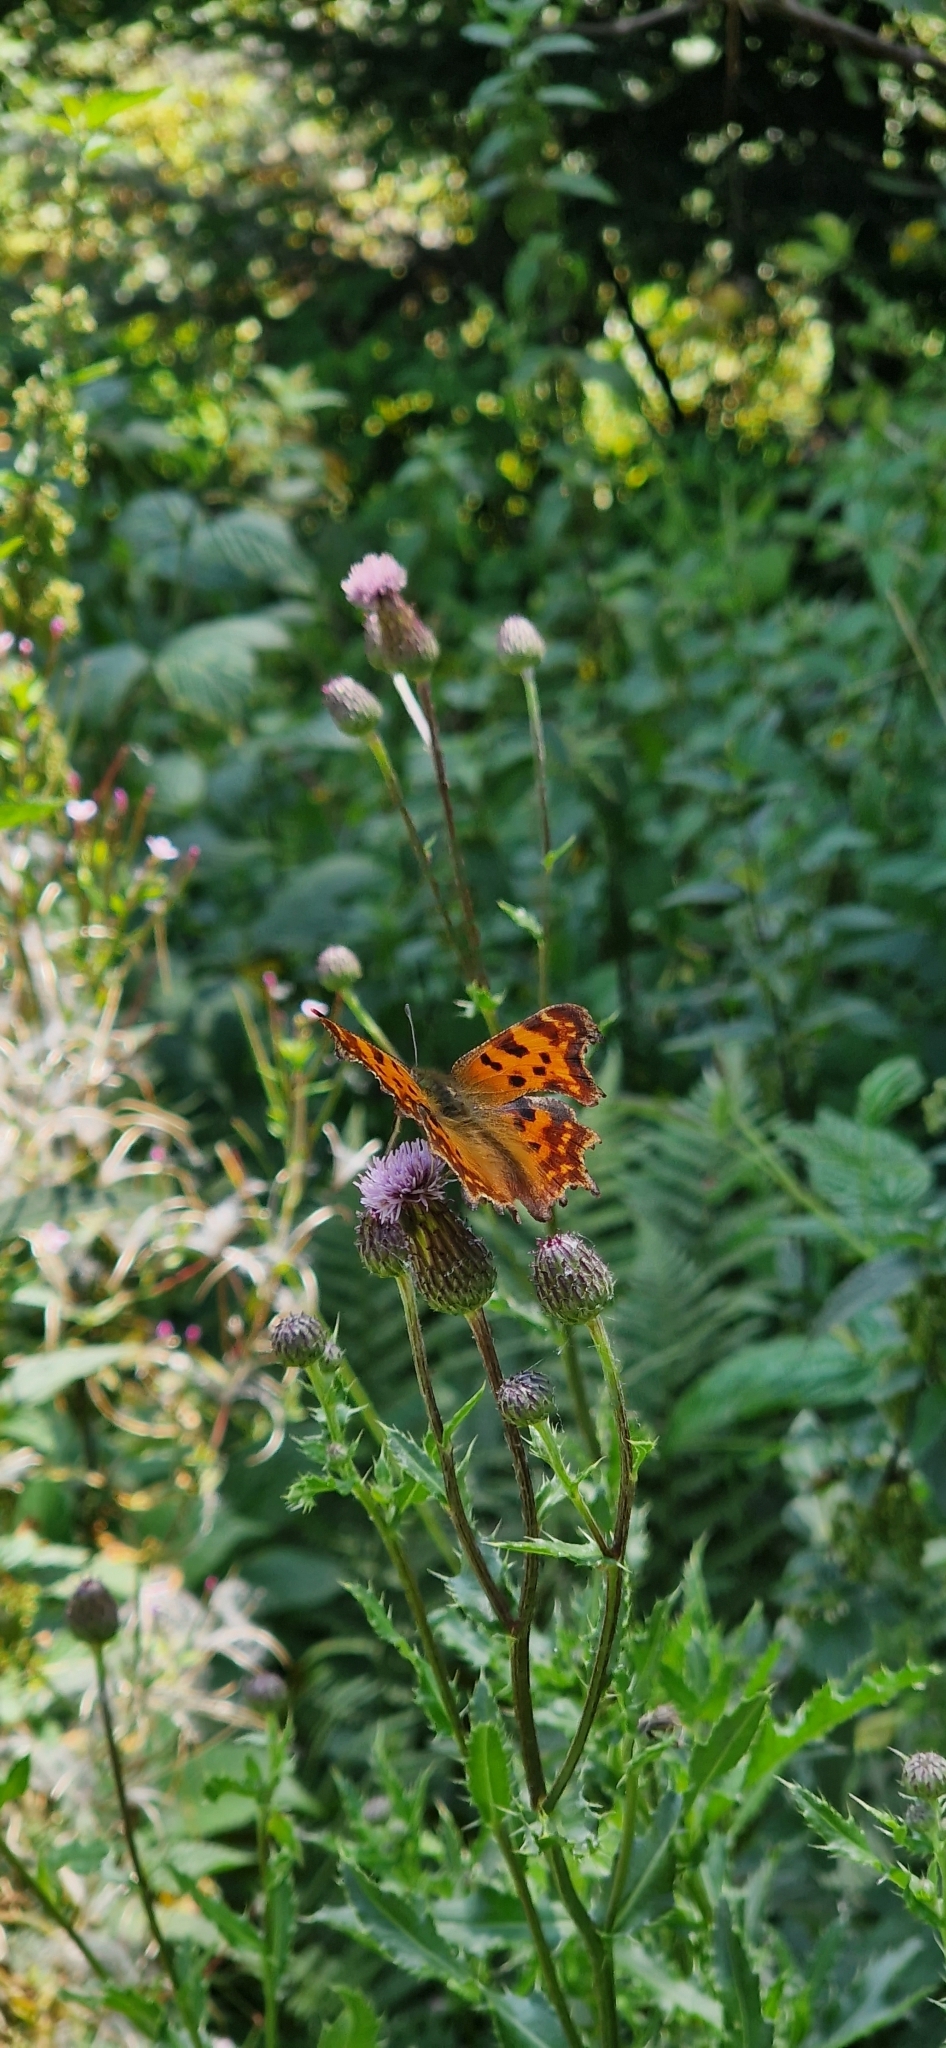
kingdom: Animalia
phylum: Arthropoda
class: Insecta
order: Lepidoptera
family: Nymphalidae
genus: Polygonia
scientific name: Polygonia c-album
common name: Comma
